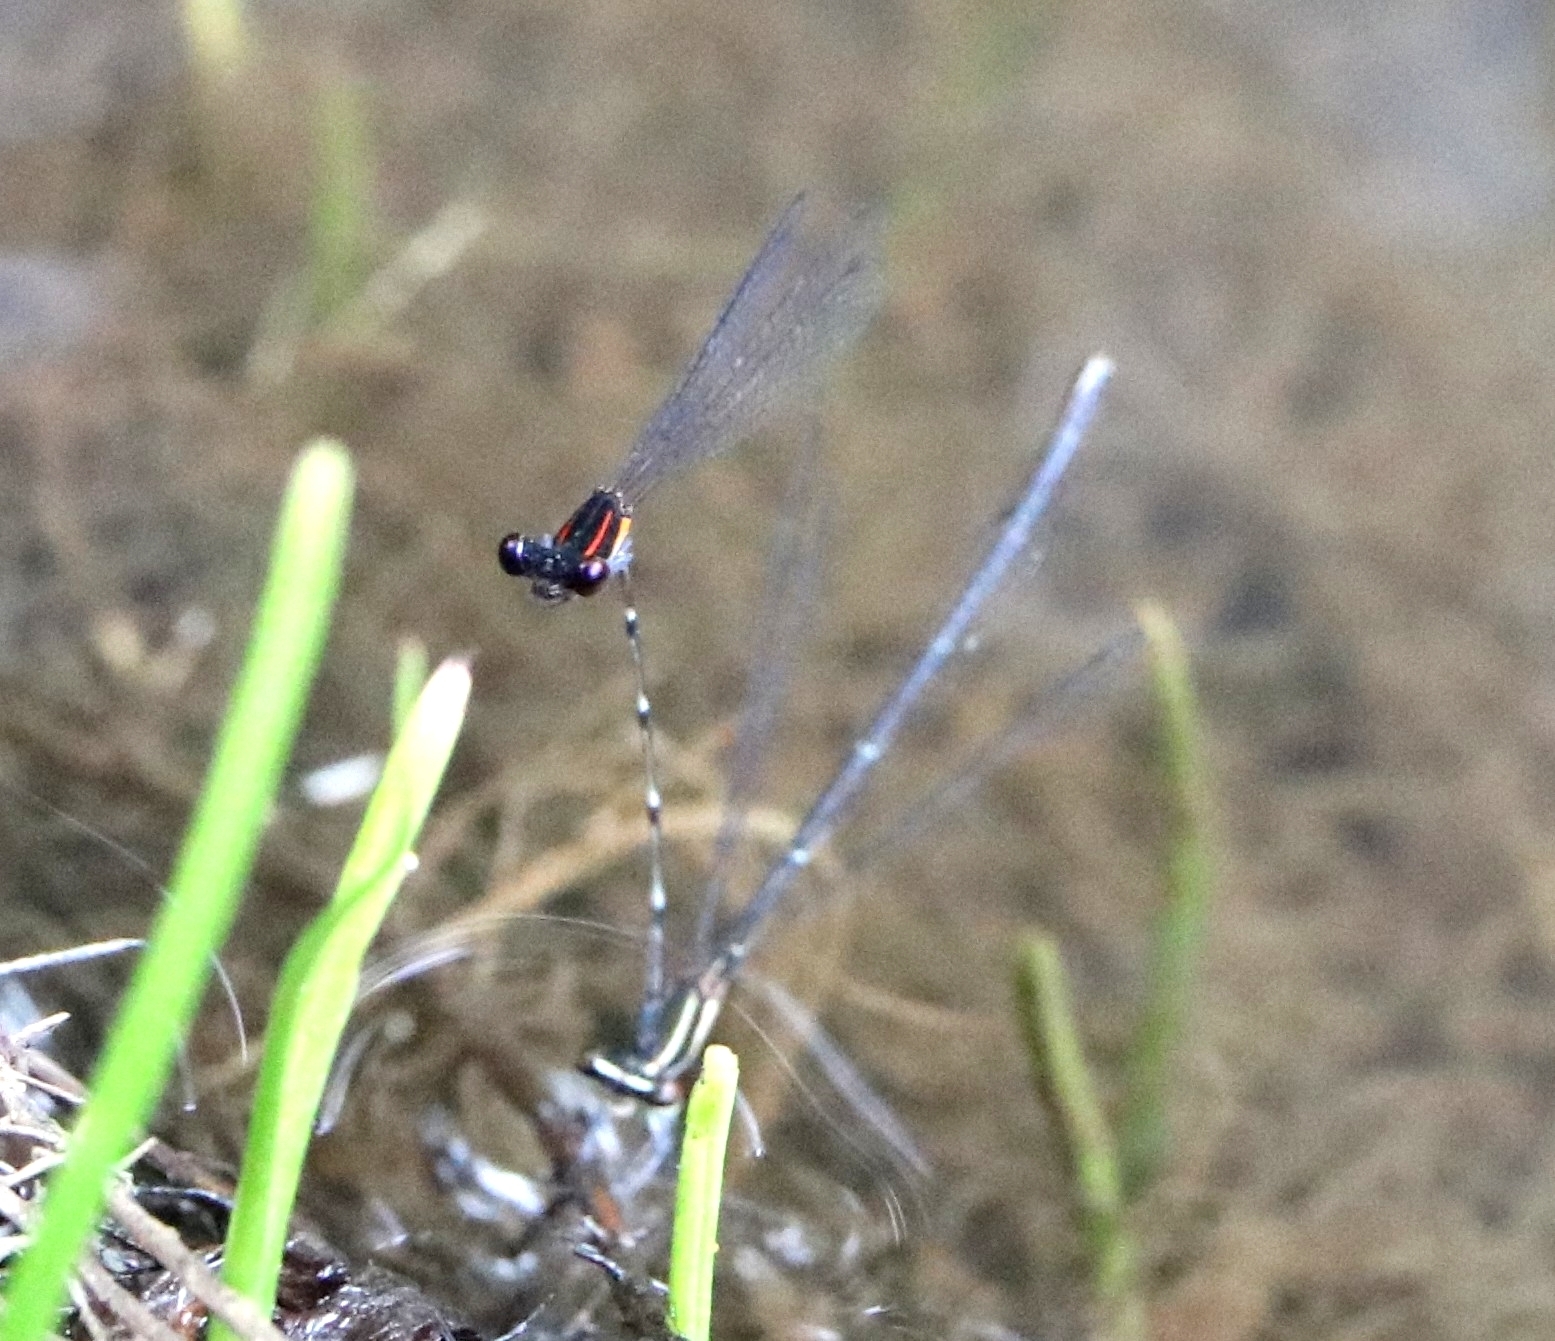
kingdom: Animalia
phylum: Arthropoda
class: Insecta
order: Odonata
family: Platycnemididae
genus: Prodasineura
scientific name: Prodasineura verticalis
